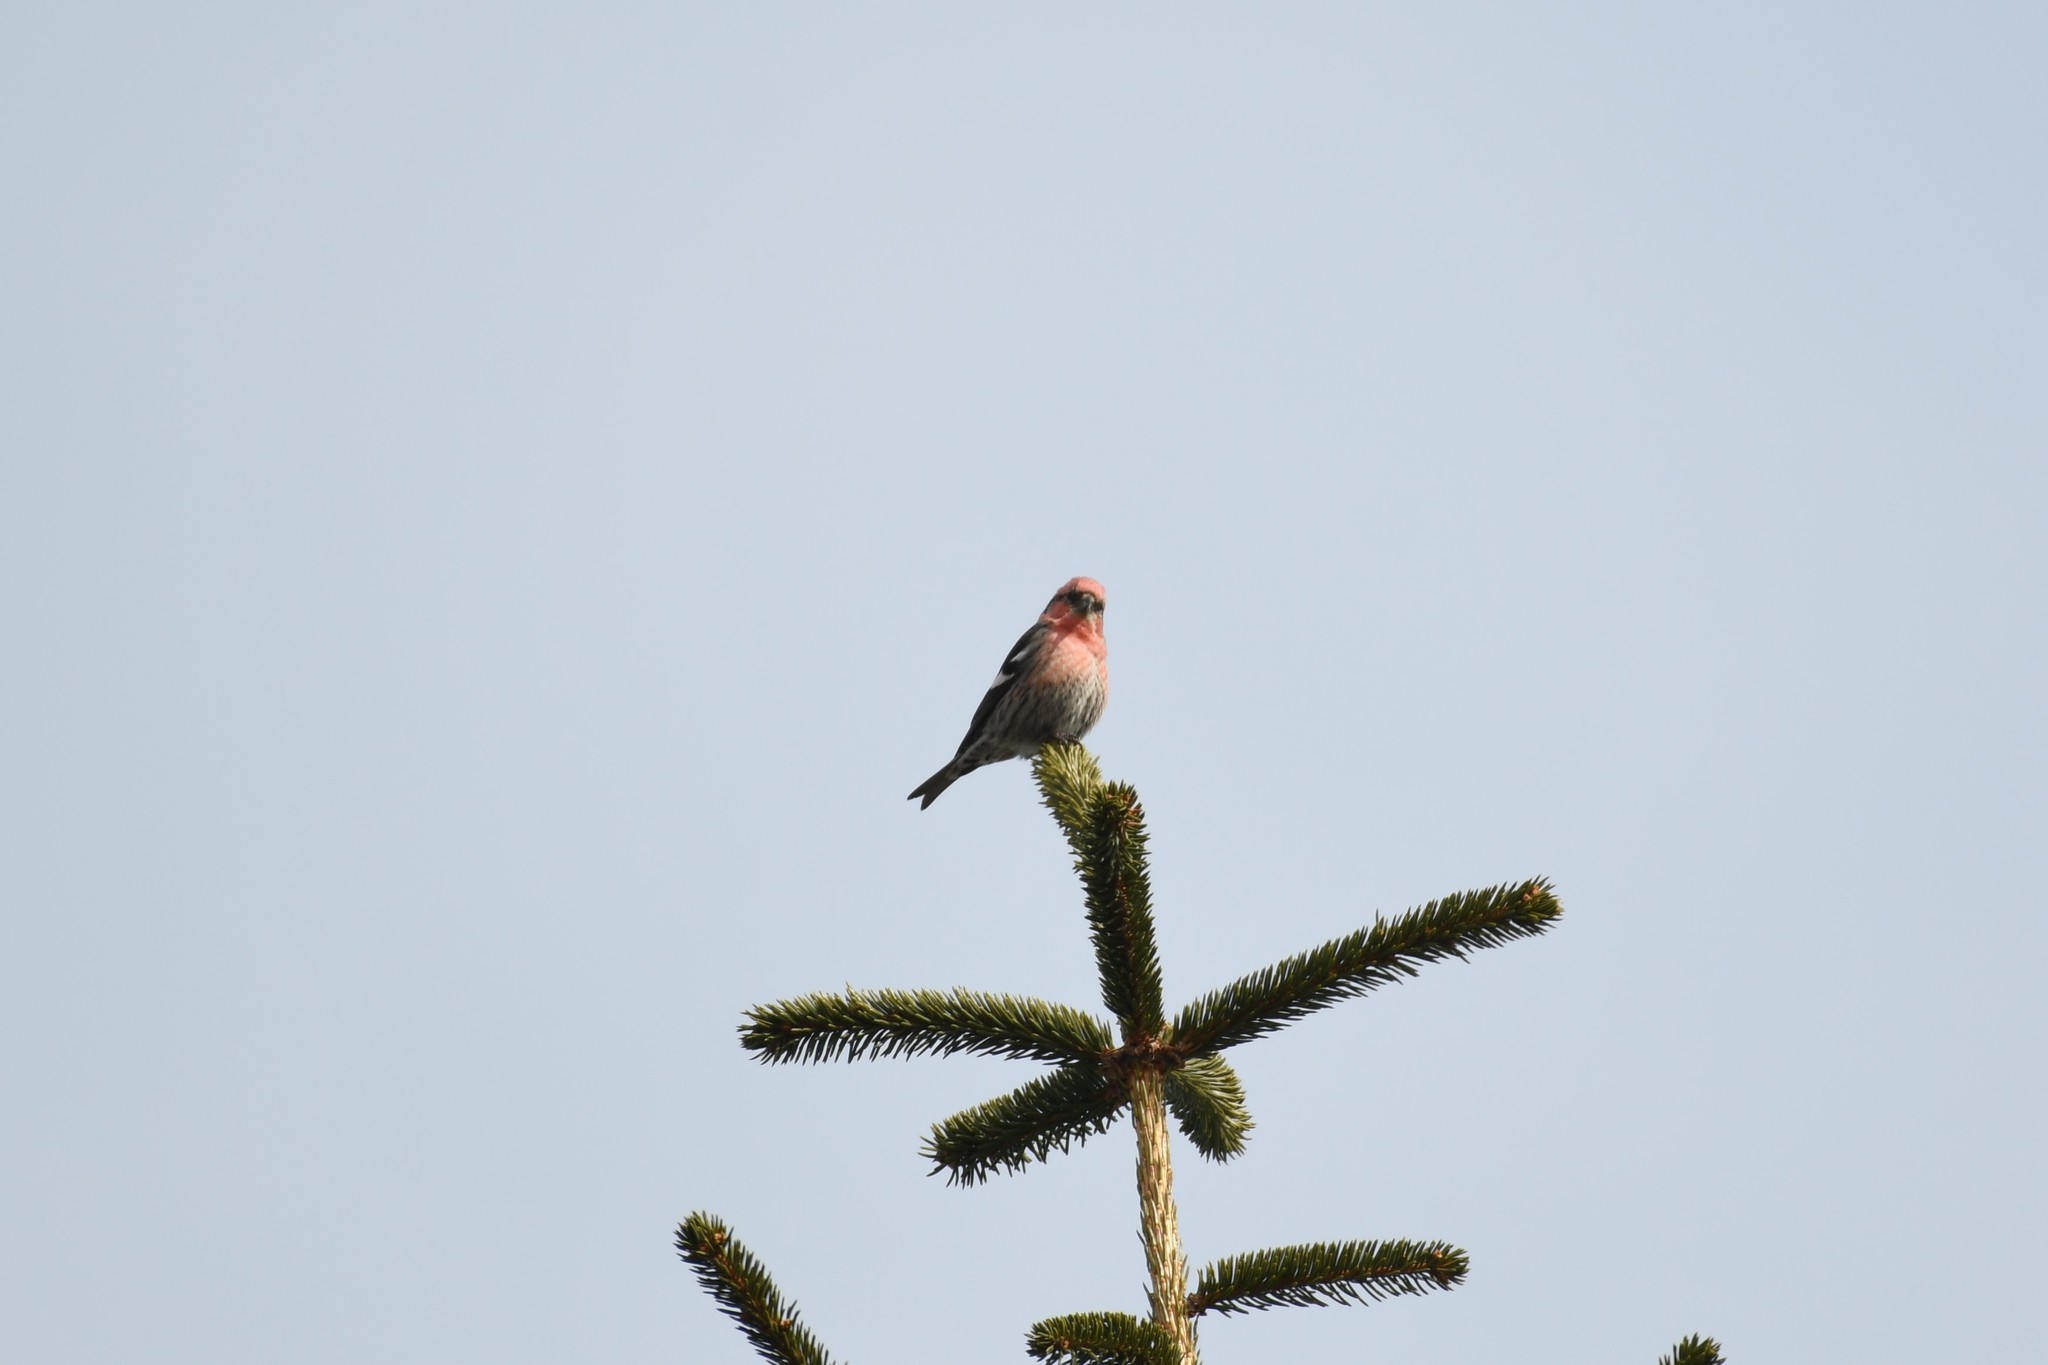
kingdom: Animalia
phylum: Chordata
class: Aves
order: Passeriformes
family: Fringillidae
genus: Loxia
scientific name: Loxia leucoptera
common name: Two-barred crossbill
